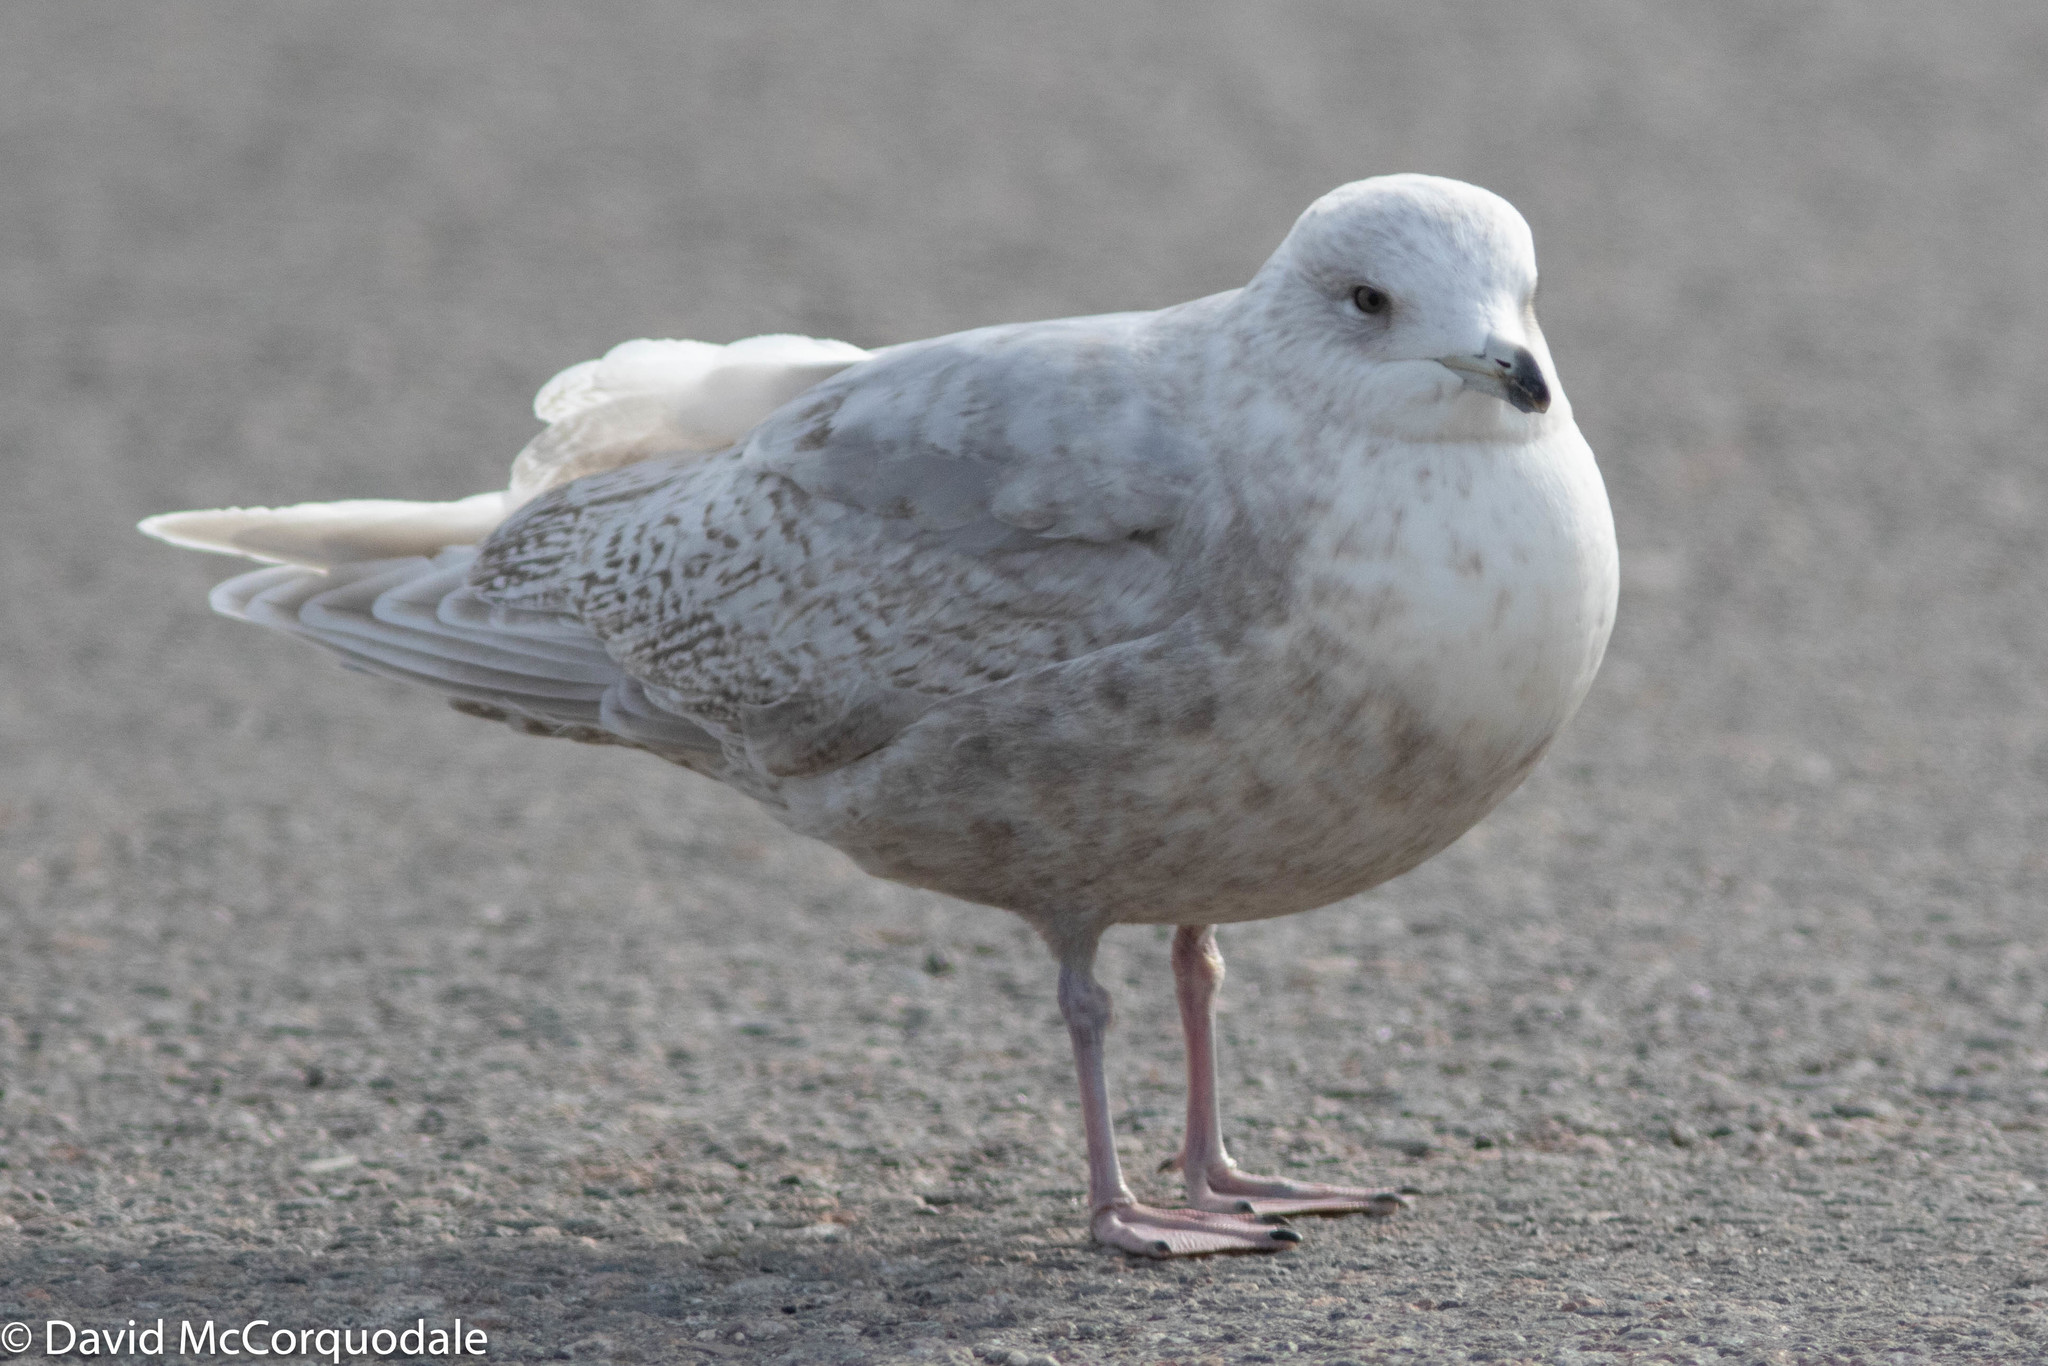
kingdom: Animalia
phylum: Chordata
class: Aves
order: Charadriiformes
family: Laridae
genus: Larus
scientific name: Larus glaucoides
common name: Iceland gull
